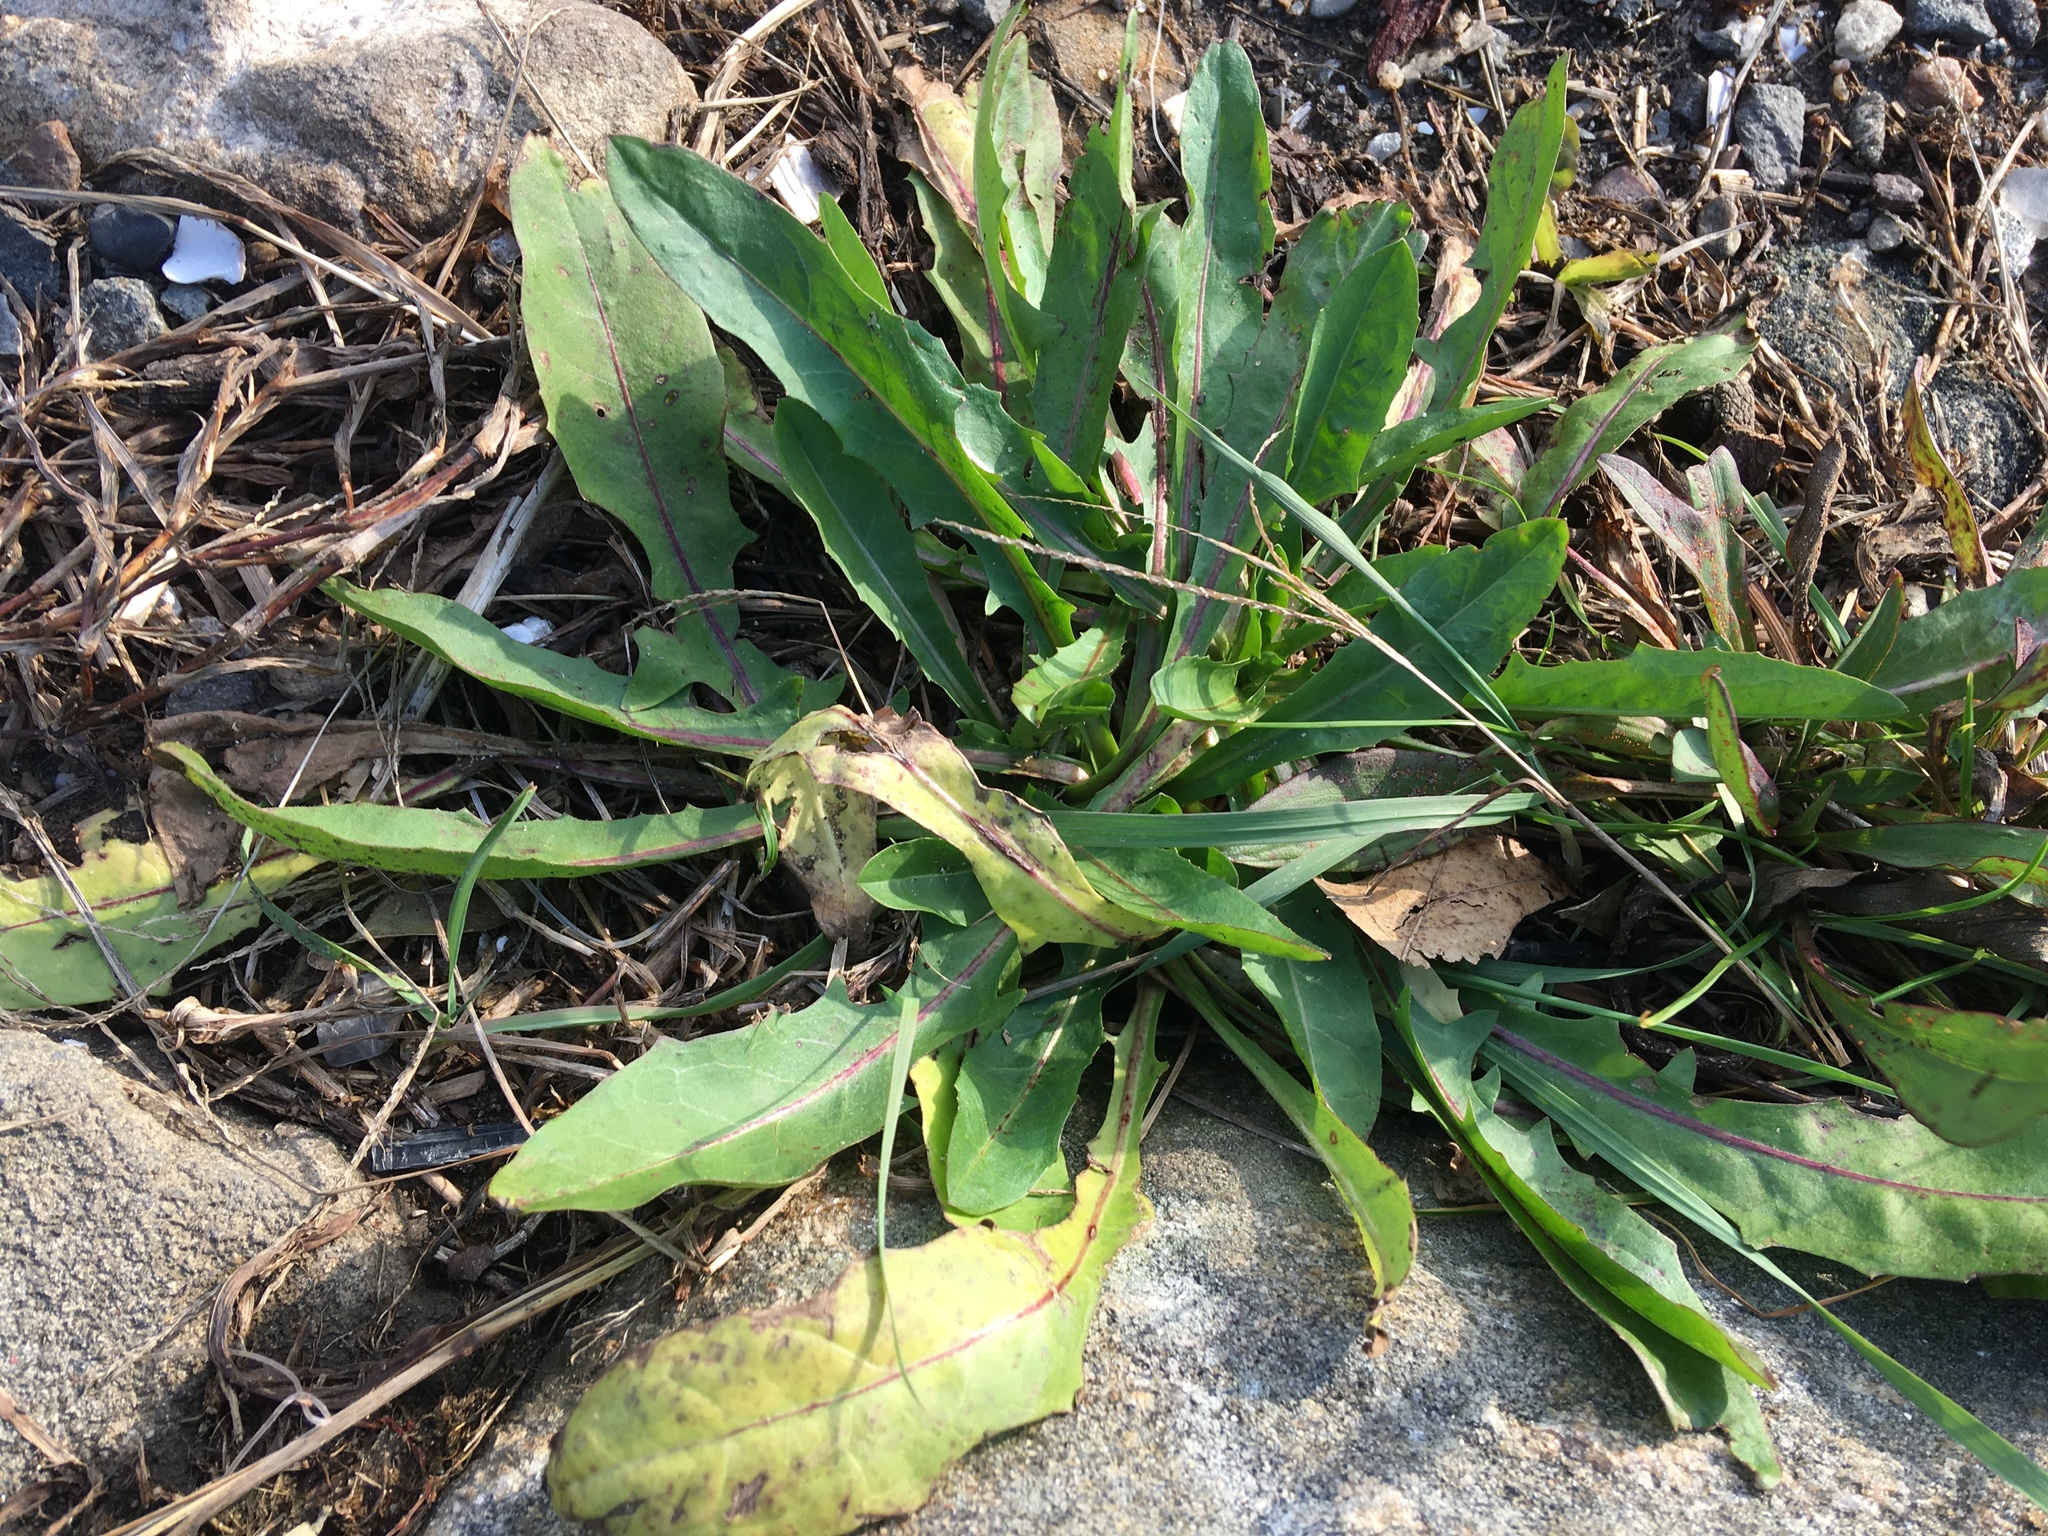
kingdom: Plantae
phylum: Tracheophyta
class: Magnoliopsida
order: Asterales
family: Asteraceae
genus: Taraxacum
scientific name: Taraxacum officinale
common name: Common dandelion
